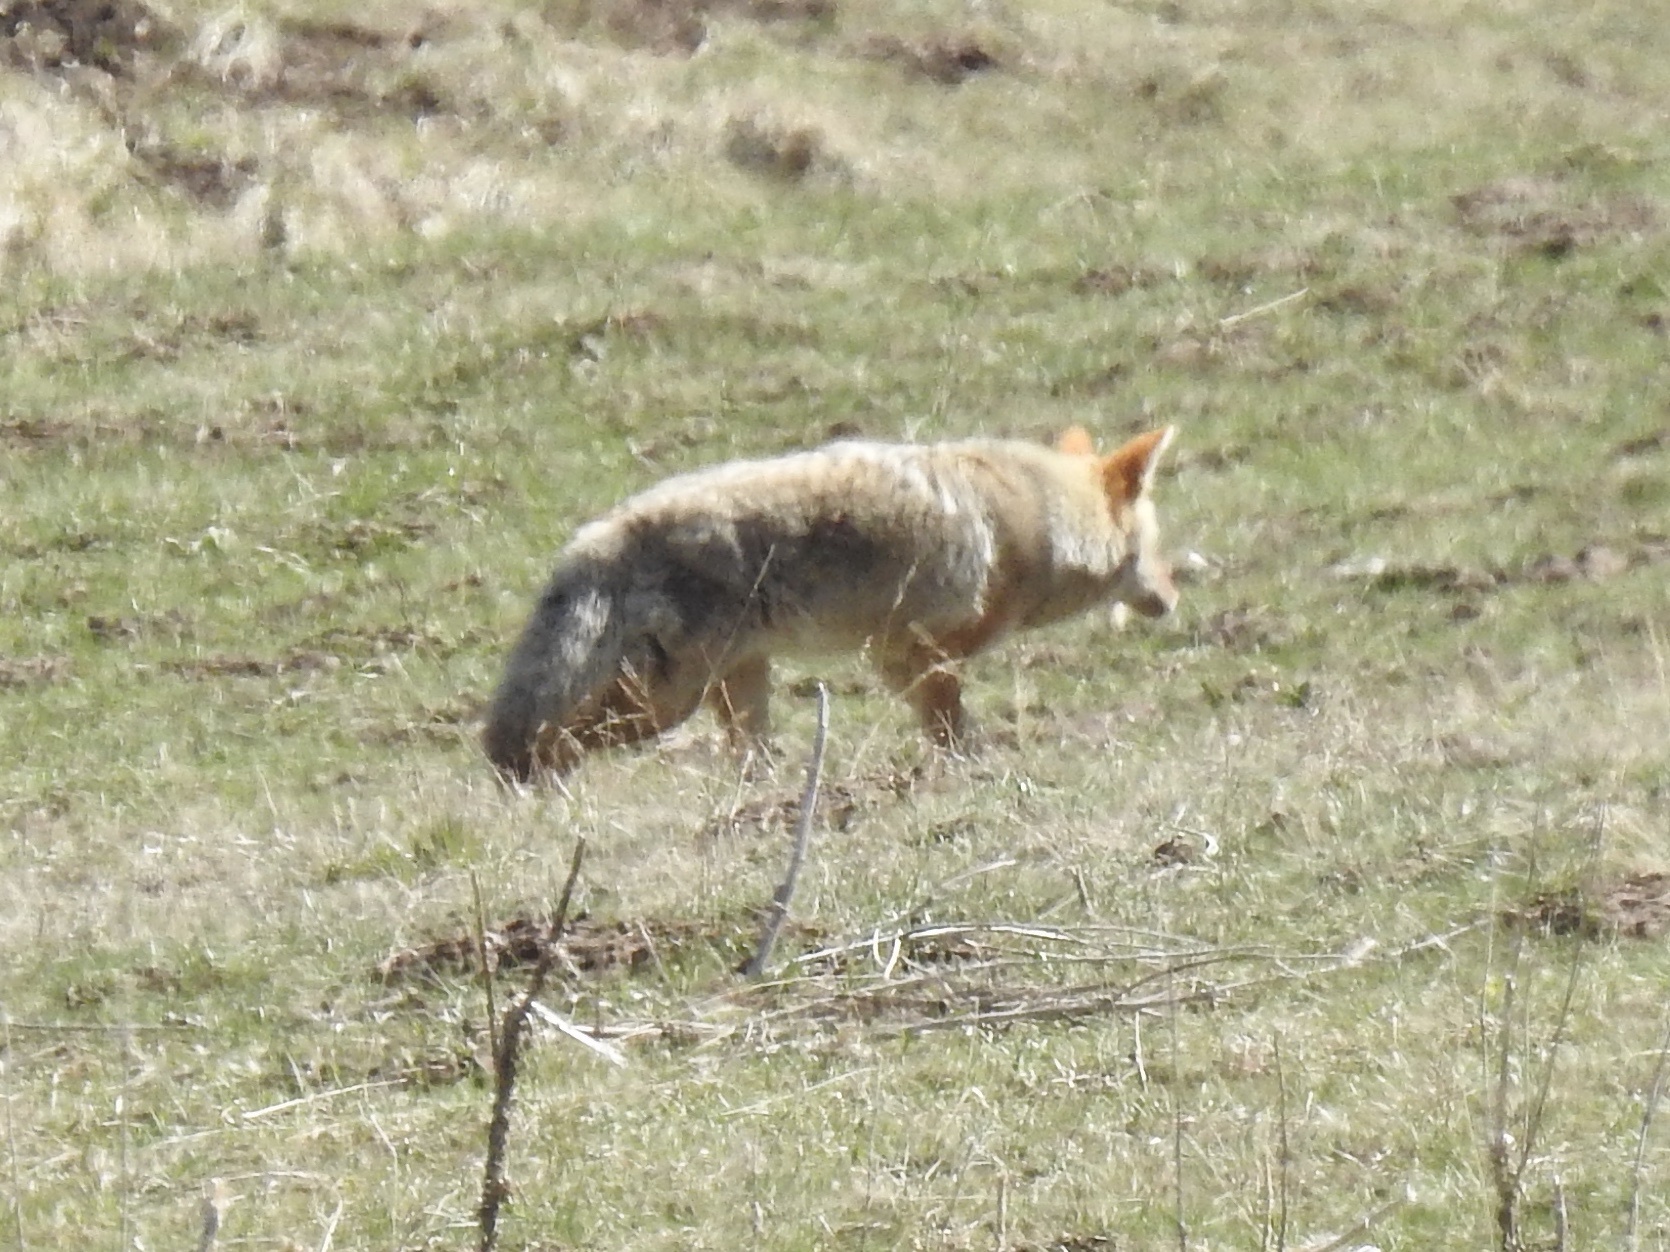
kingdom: Animalia
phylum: Chordata
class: Mammalia
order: Carnivora
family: Canidae
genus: Canis
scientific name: Canis latrans
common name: Coyote
